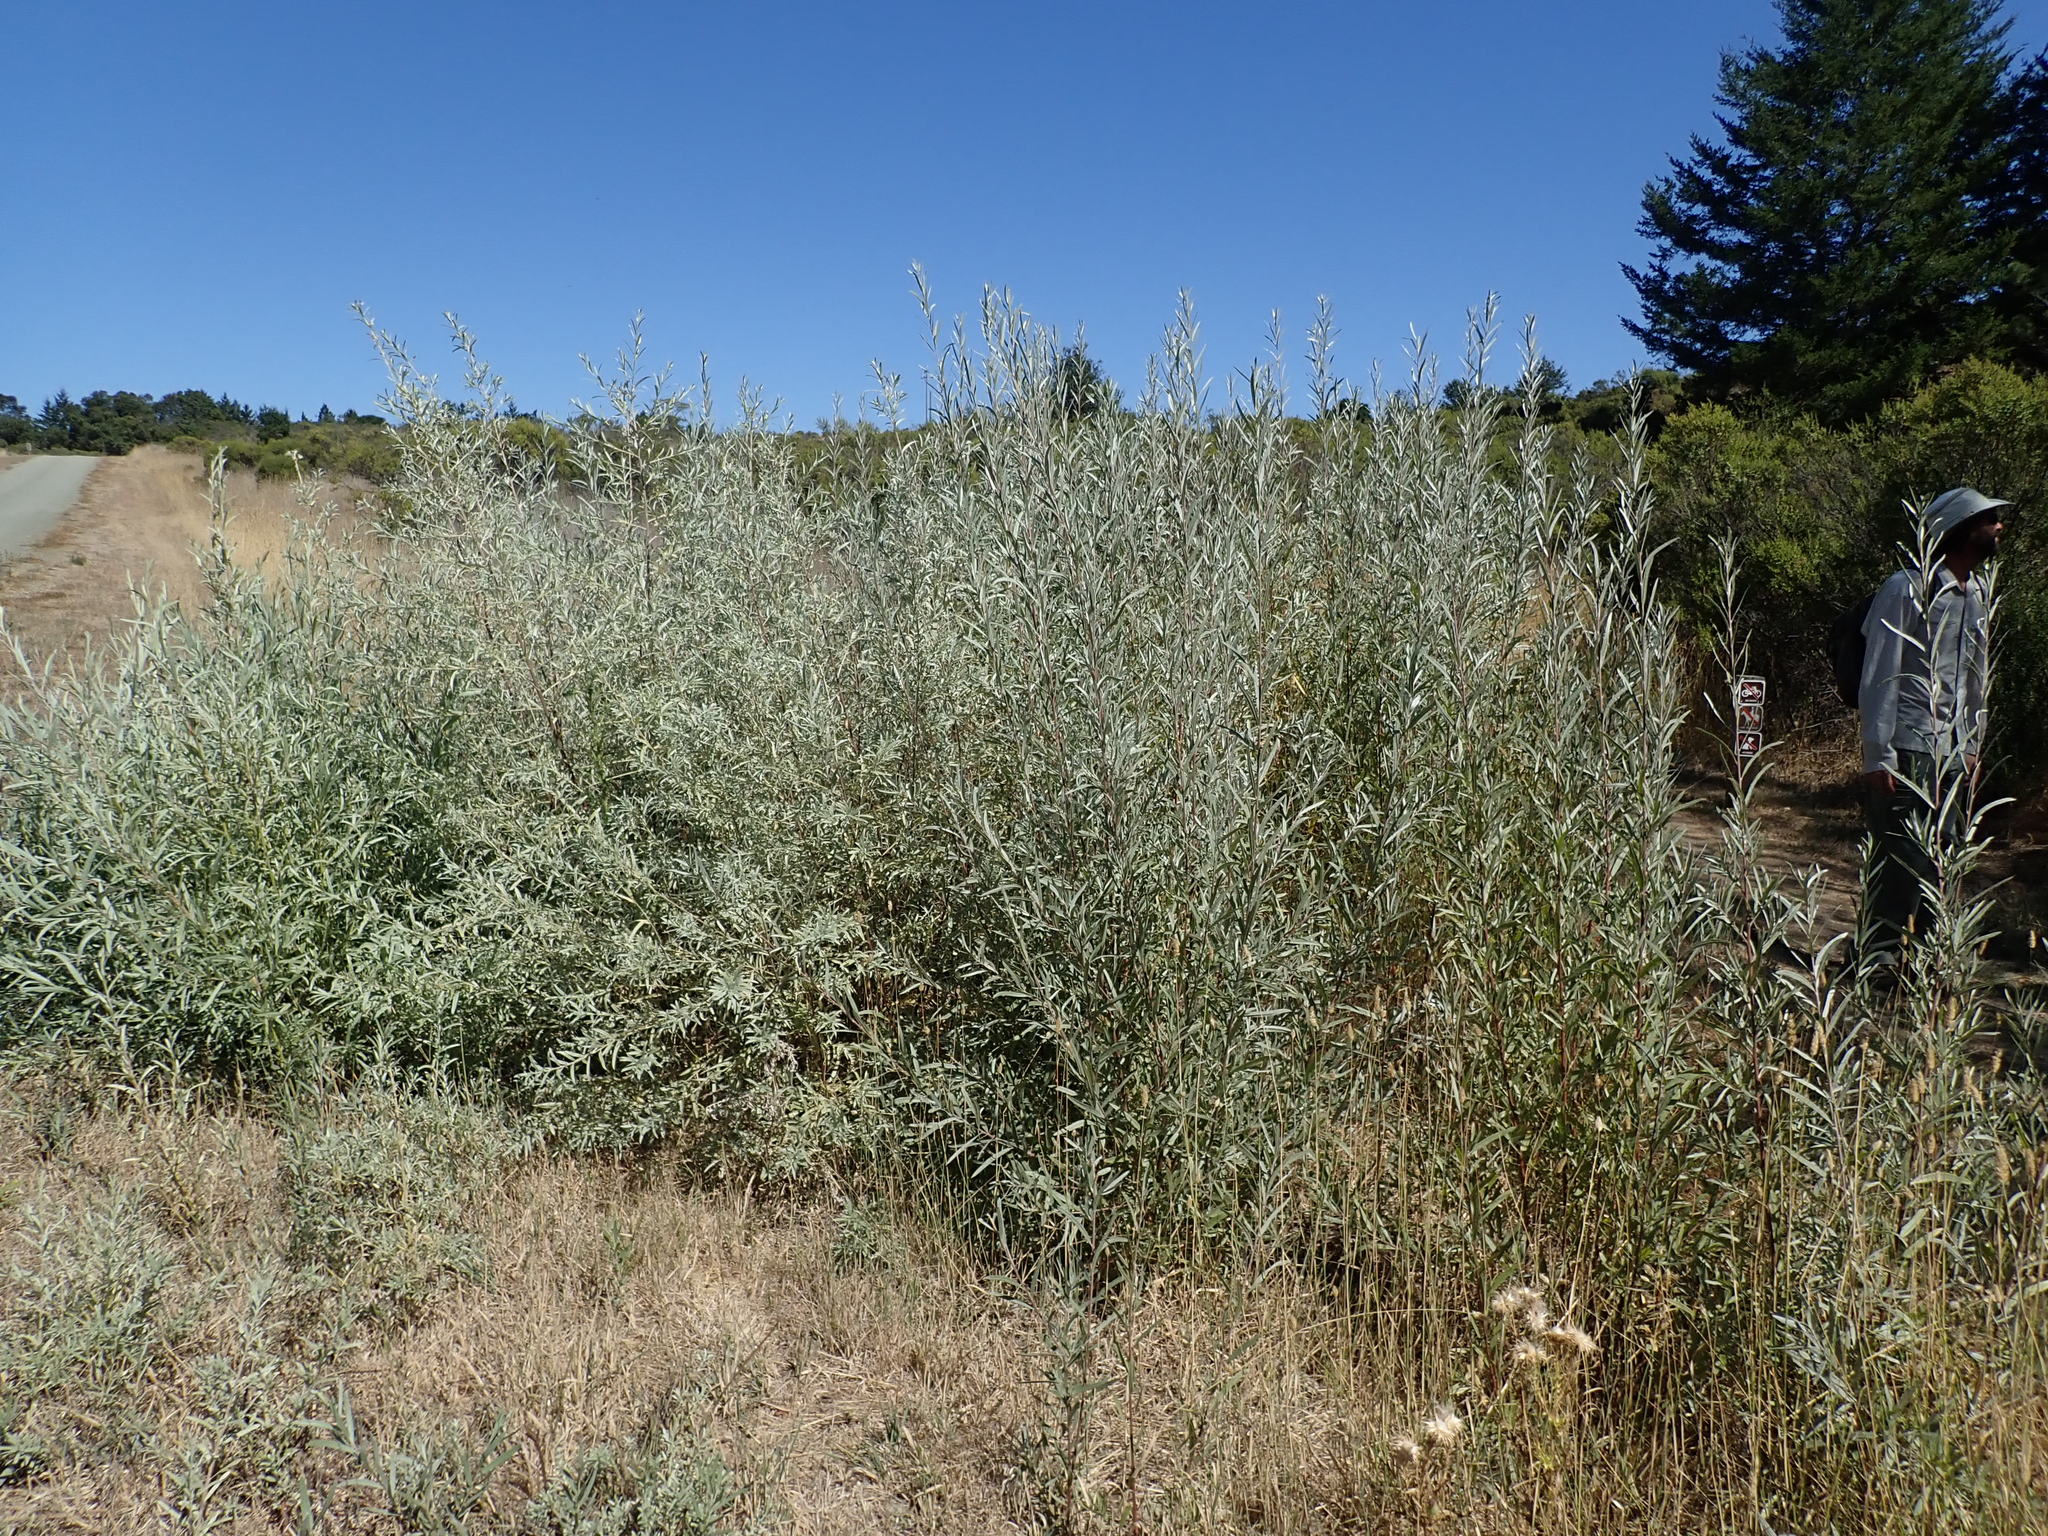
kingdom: Plantae
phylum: Tracheophyta
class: Magnoliopsida
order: Malpighiales
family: Salicaceae
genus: Salix
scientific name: Salix exigua
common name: Coyote willow
